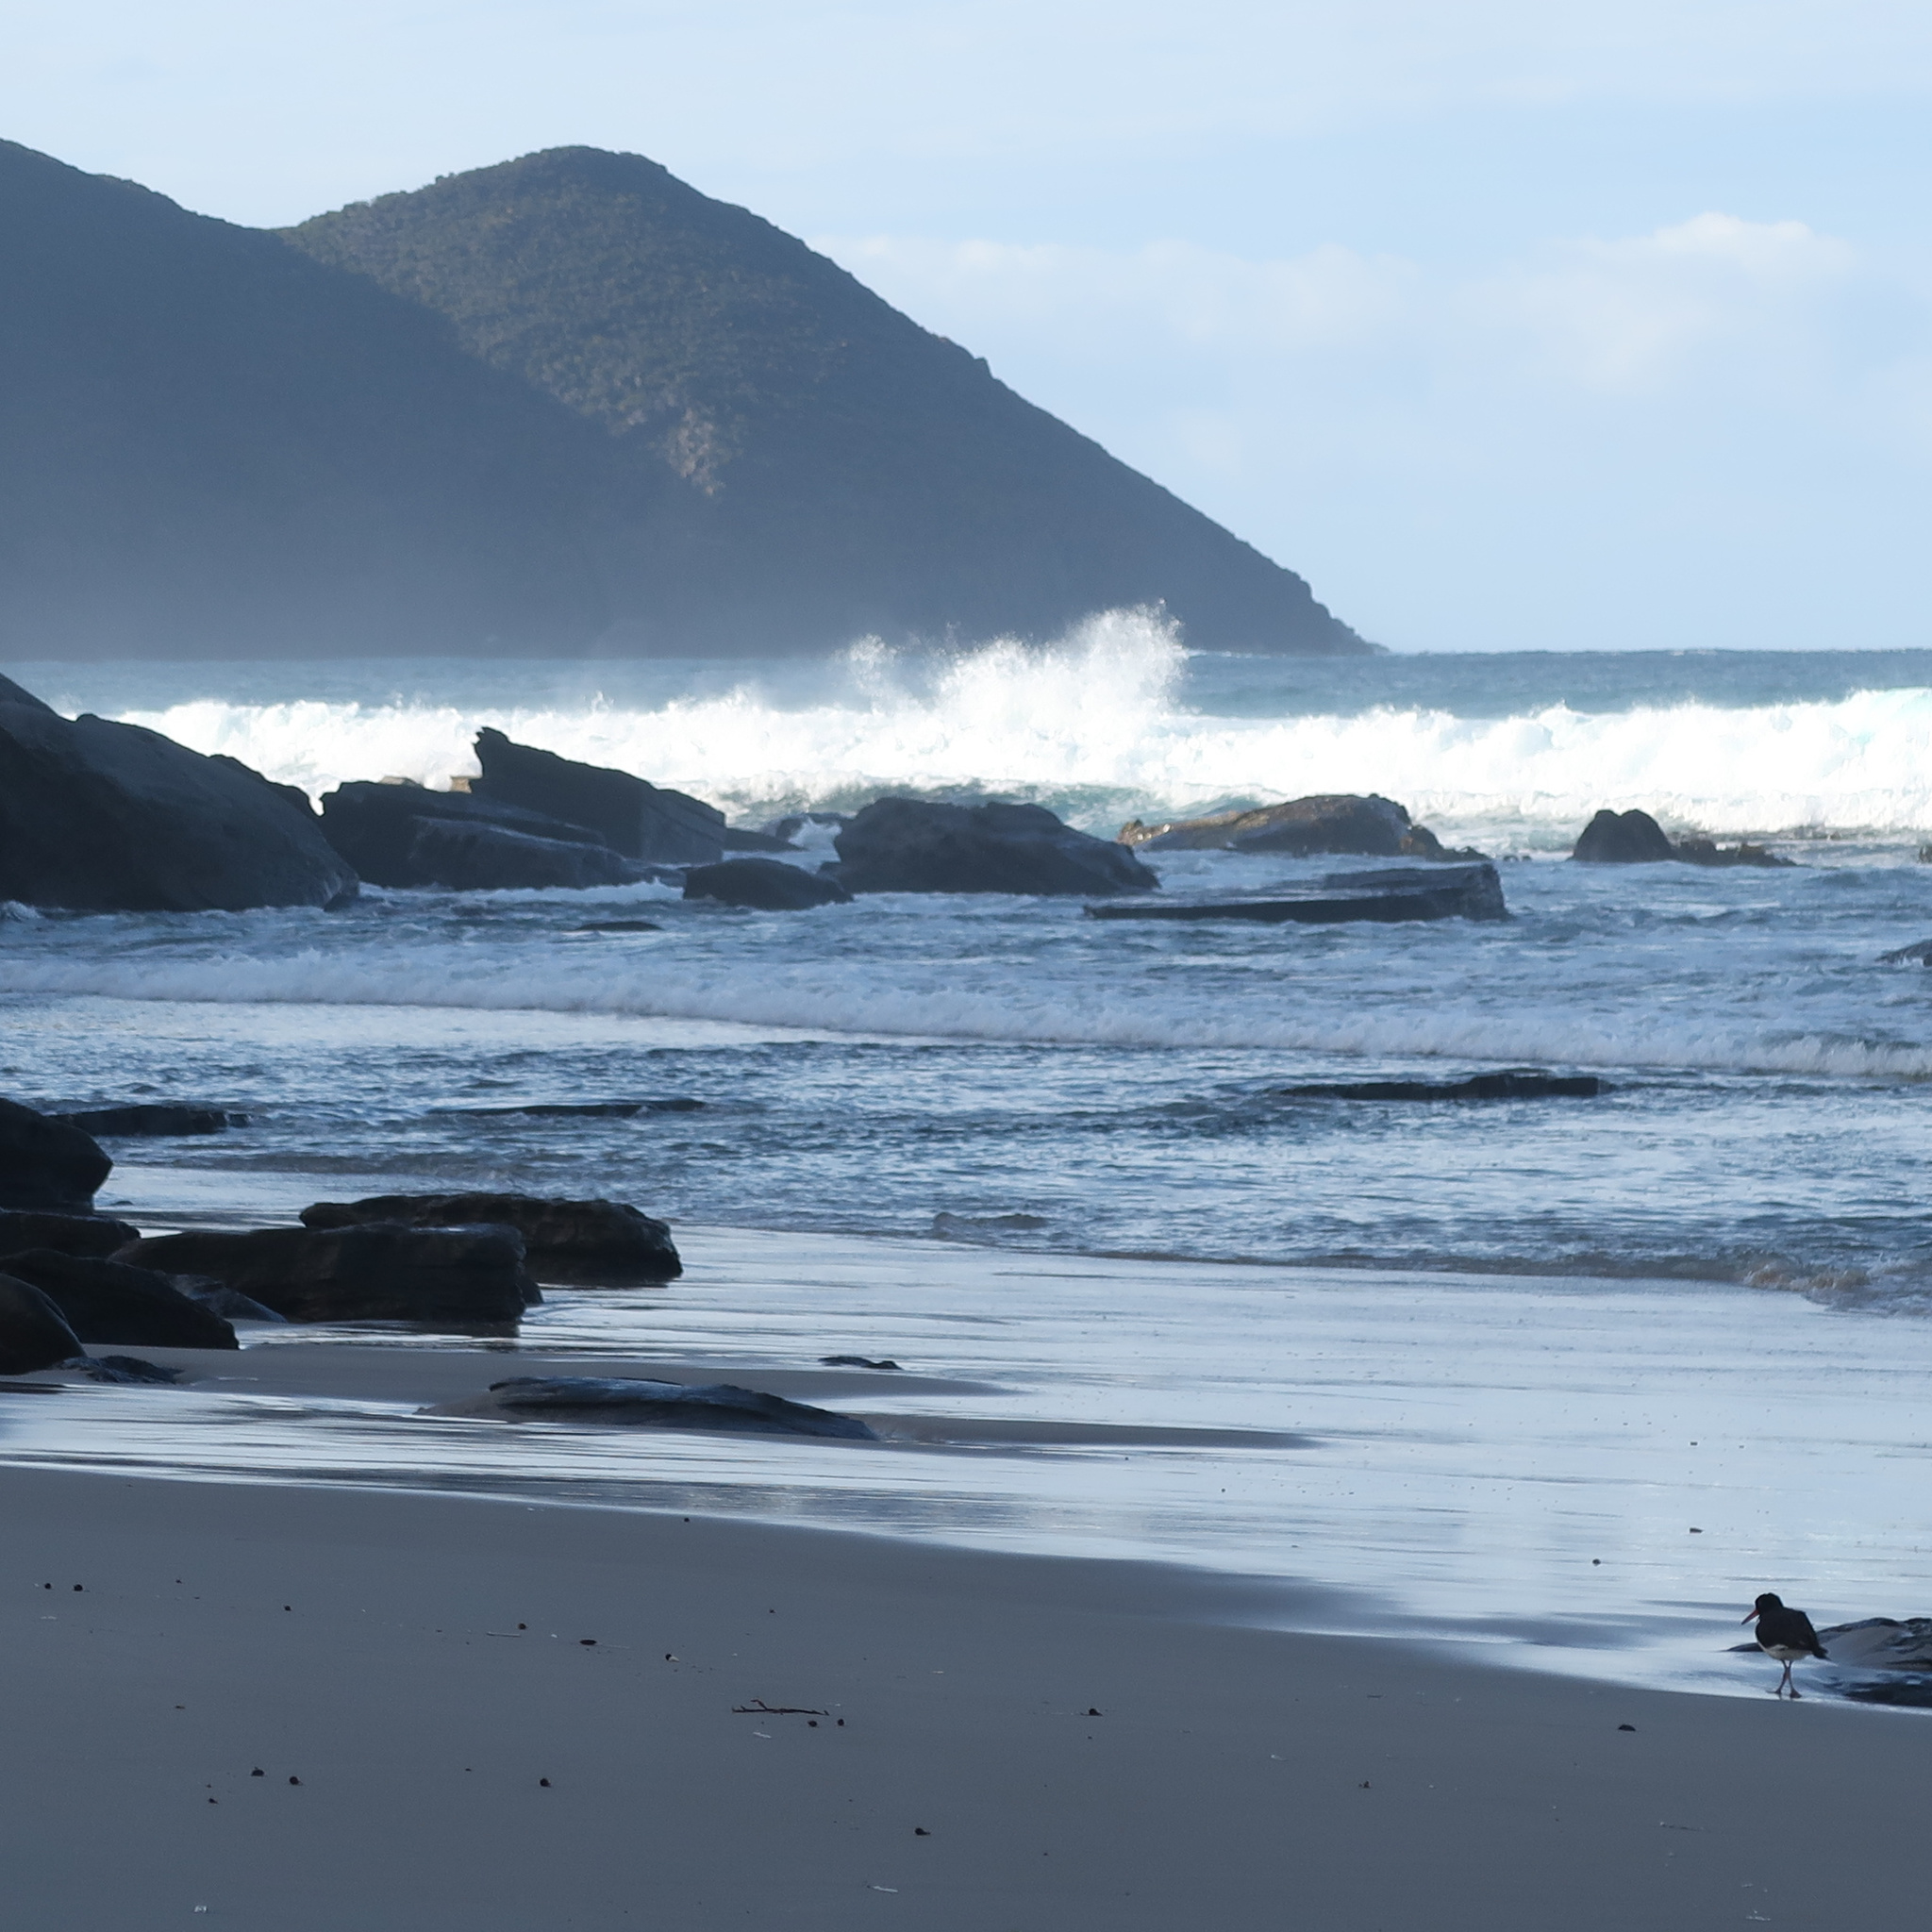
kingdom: Animalia
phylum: Chordata
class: Aves
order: Charadriiformes
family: Haematopodidae
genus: Haematopus
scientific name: Haematopus longirostris
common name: Pied oystercatcher
